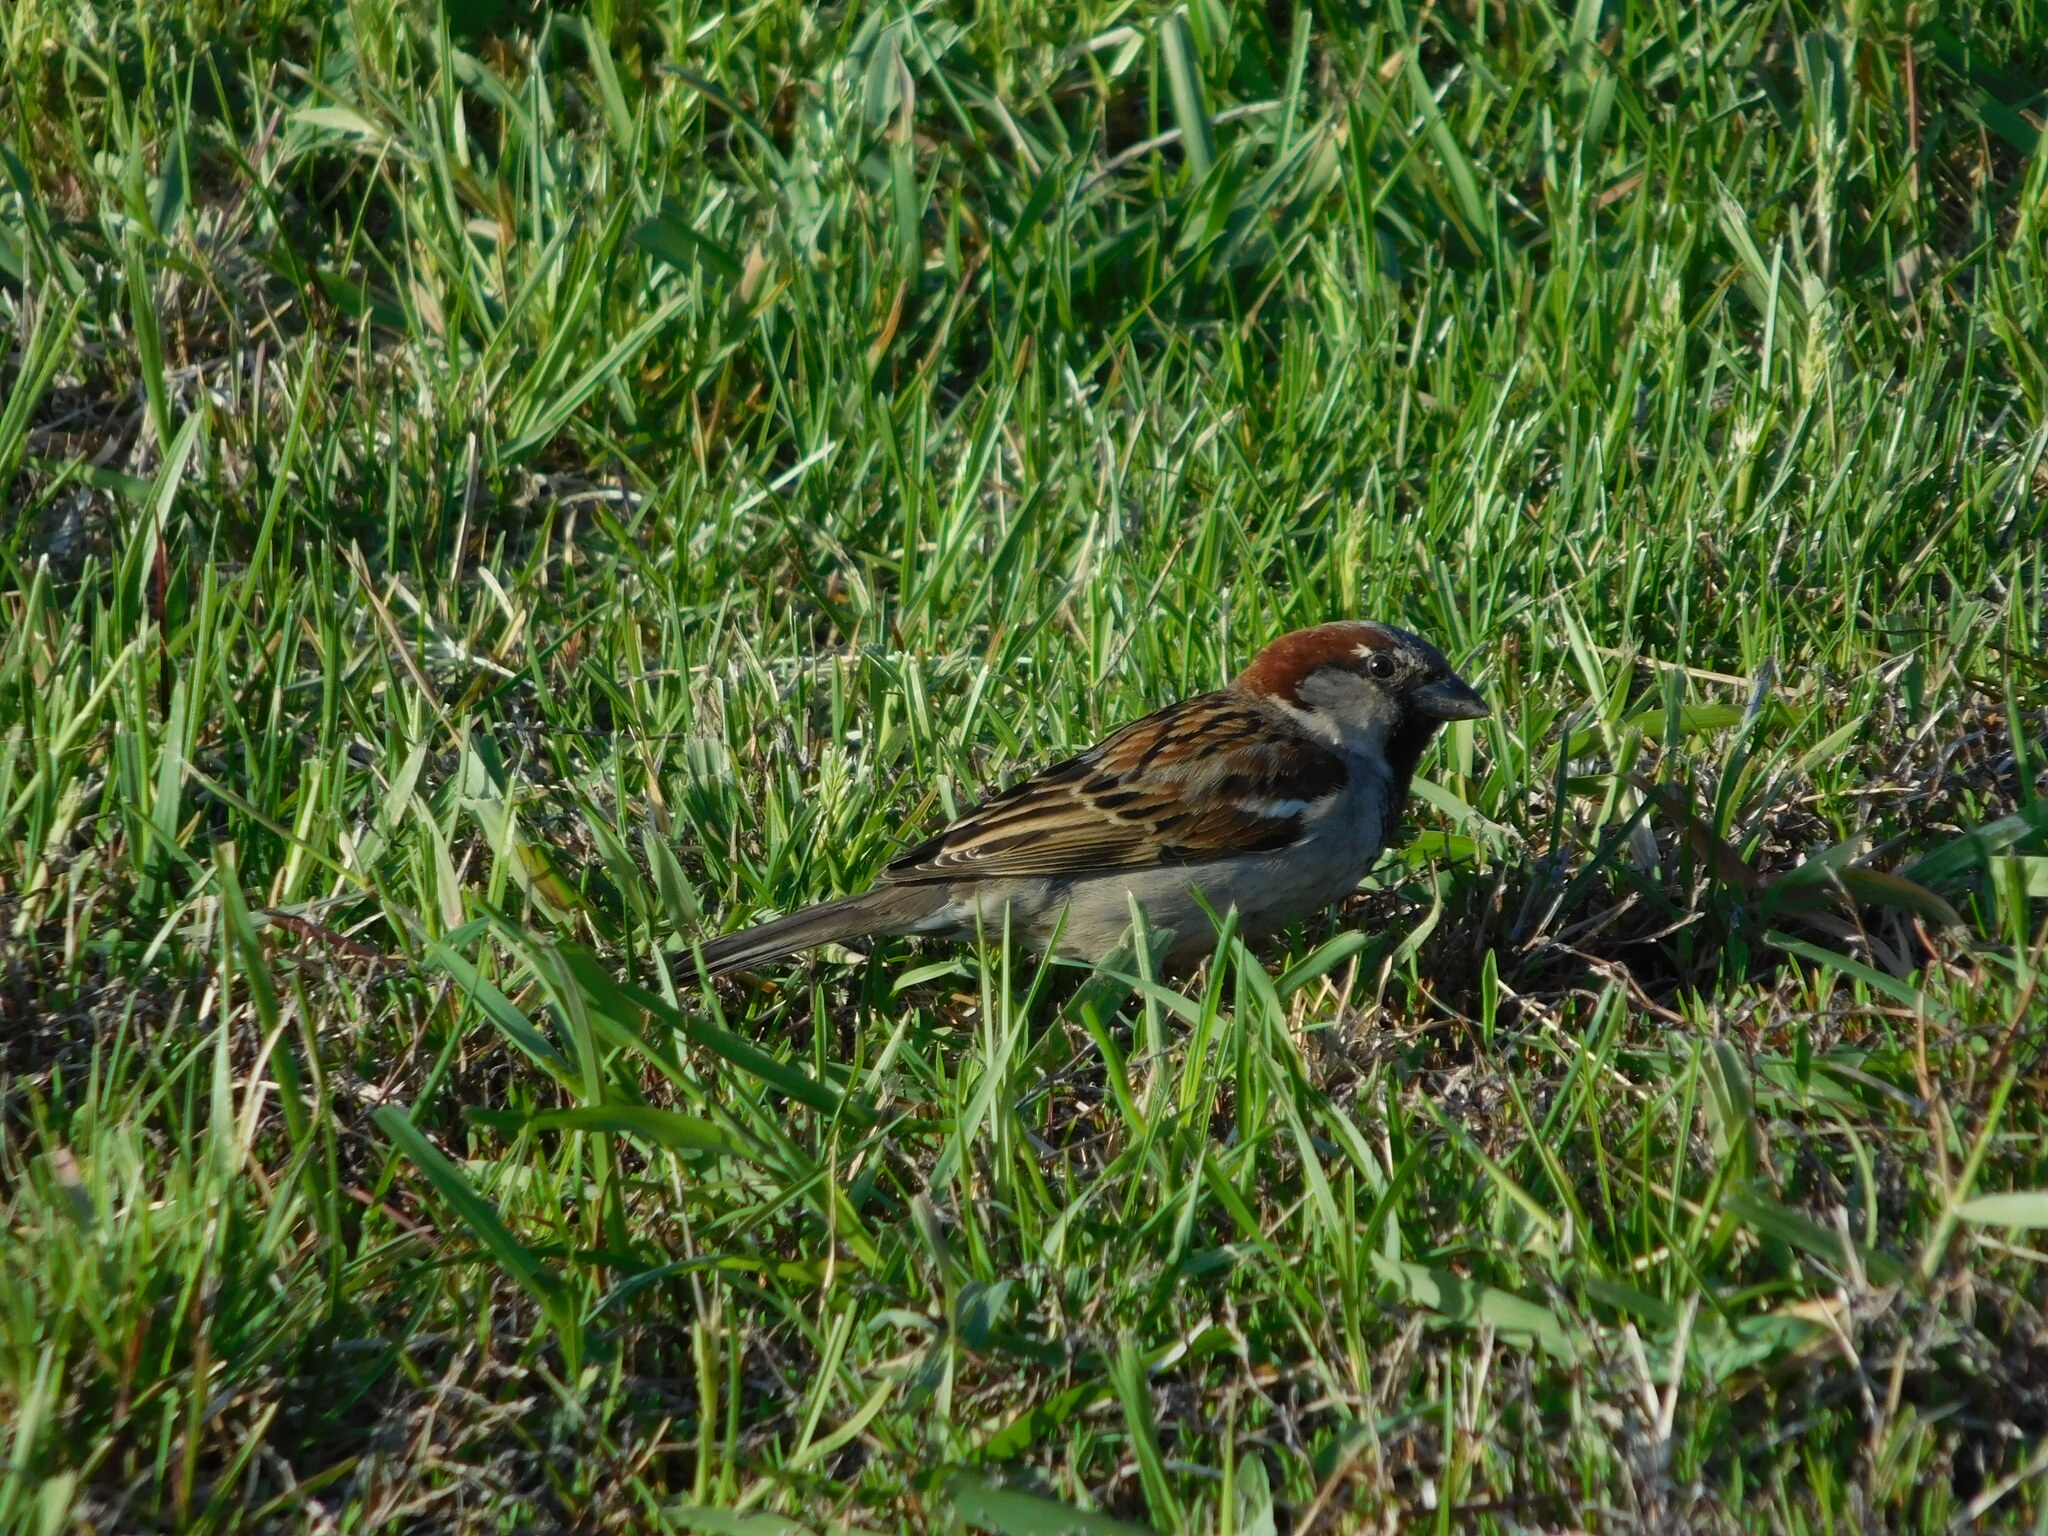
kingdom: Animalia
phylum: Chordata
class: Aves
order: Passeriformes
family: Passeridae
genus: Passer
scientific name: Passer domesticus
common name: House sparrow
